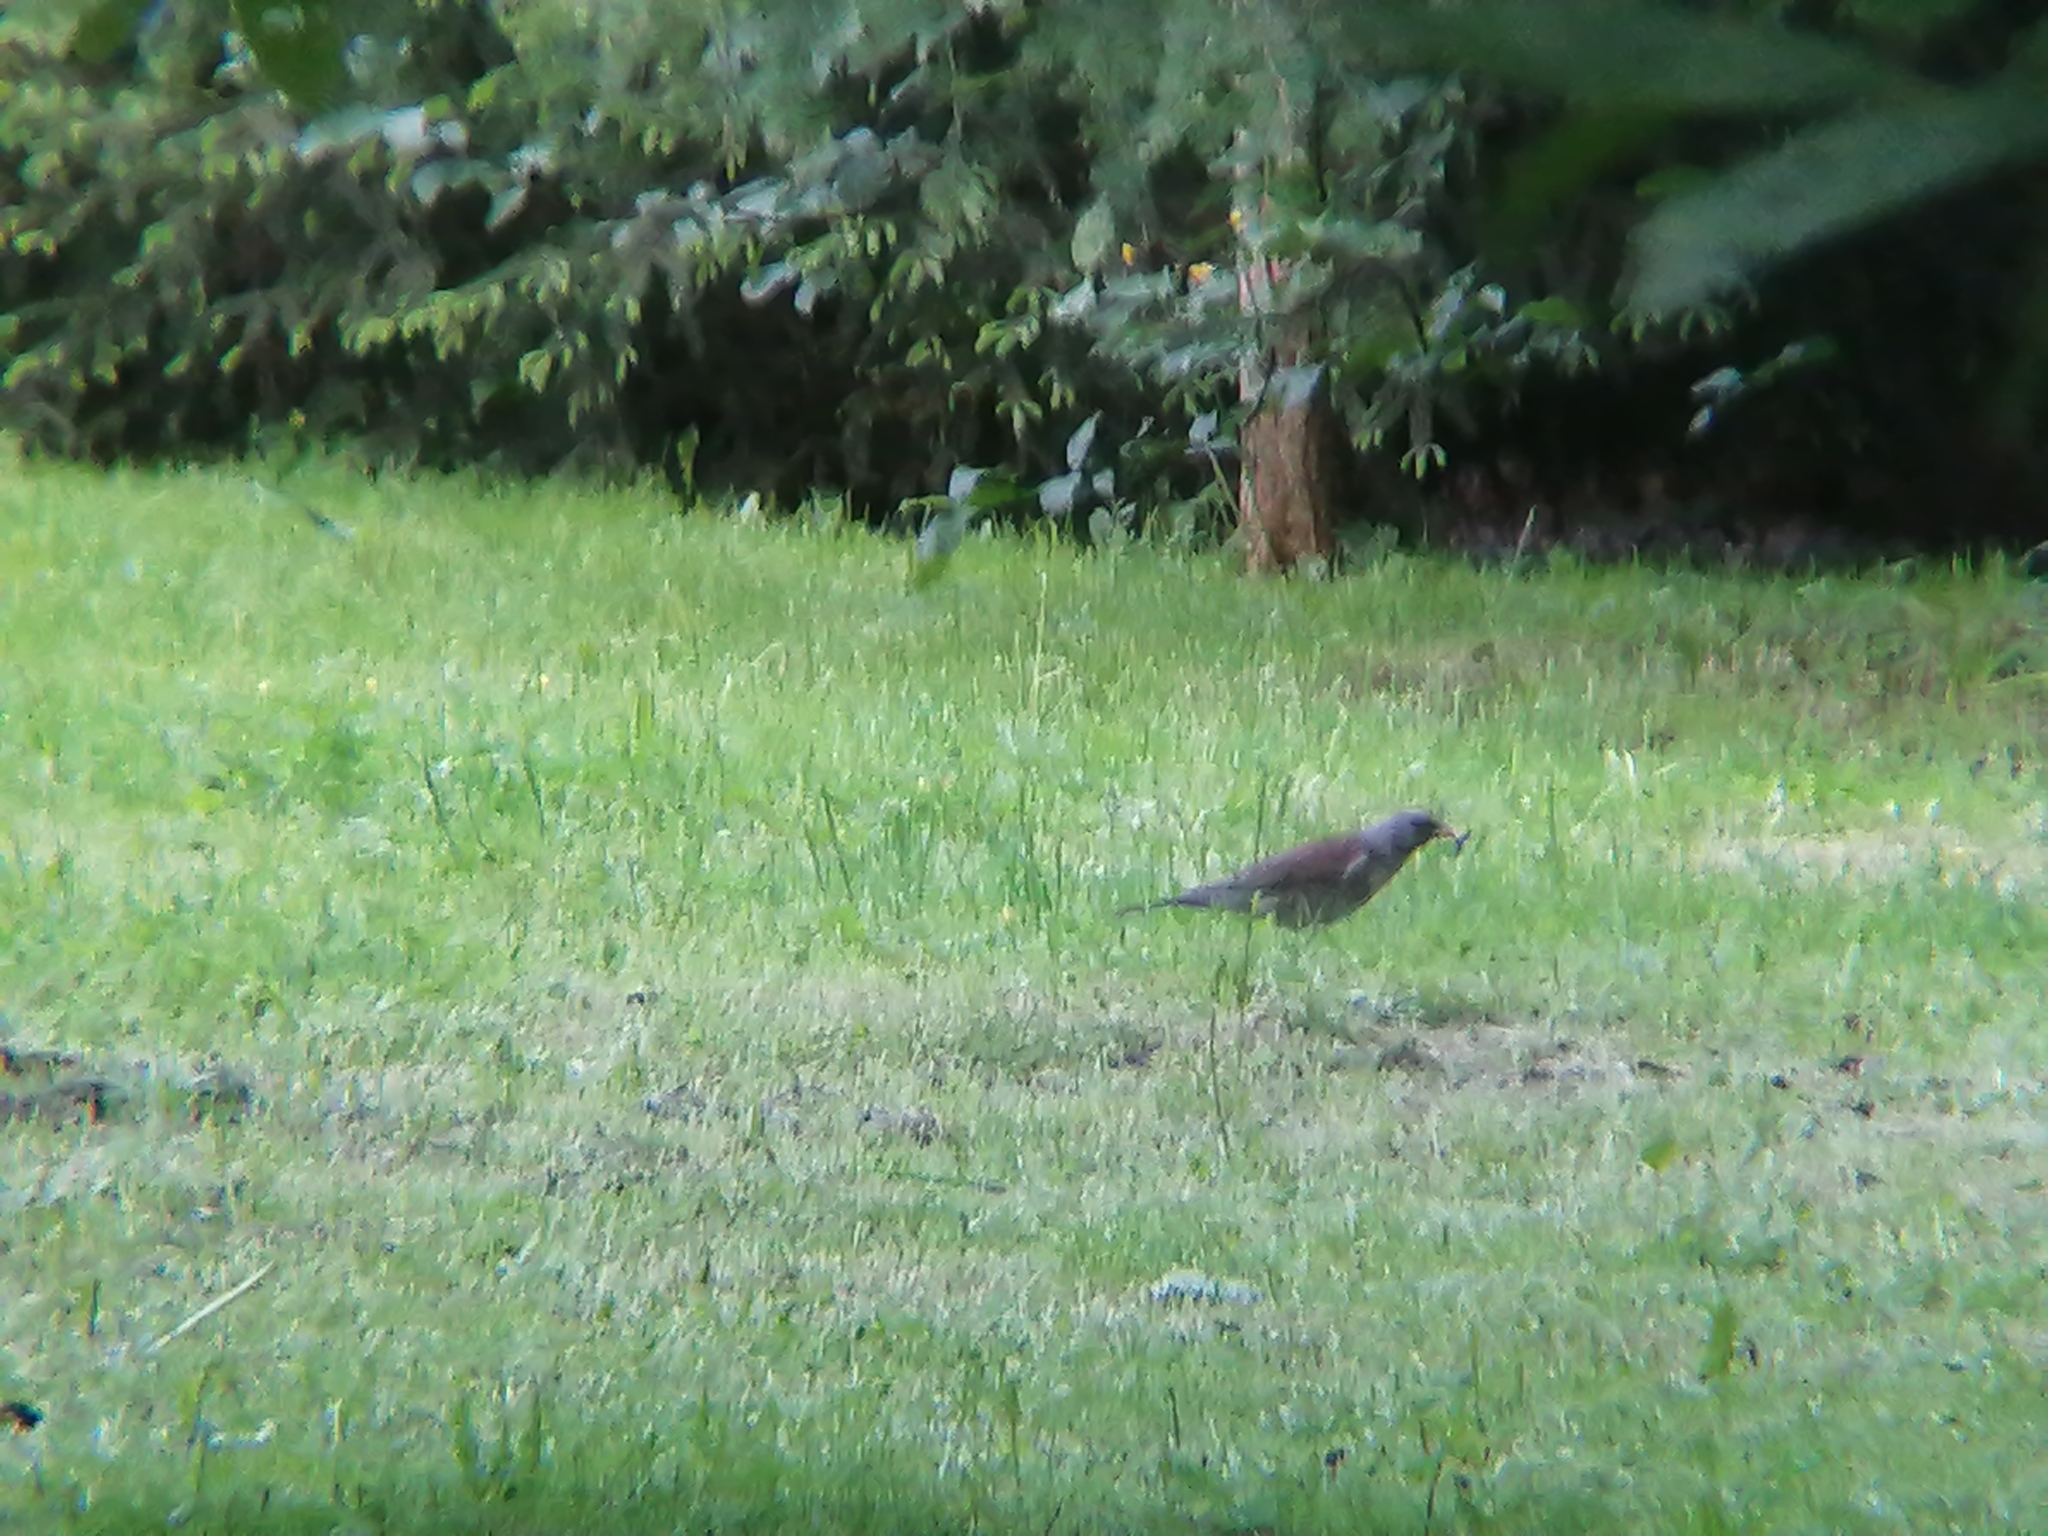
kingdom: Animalia
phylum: Chordata
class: Aves
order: Passeriformes
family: Turdidae
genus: Turdus
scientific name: Turdus pilaris
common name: Fieldfare
